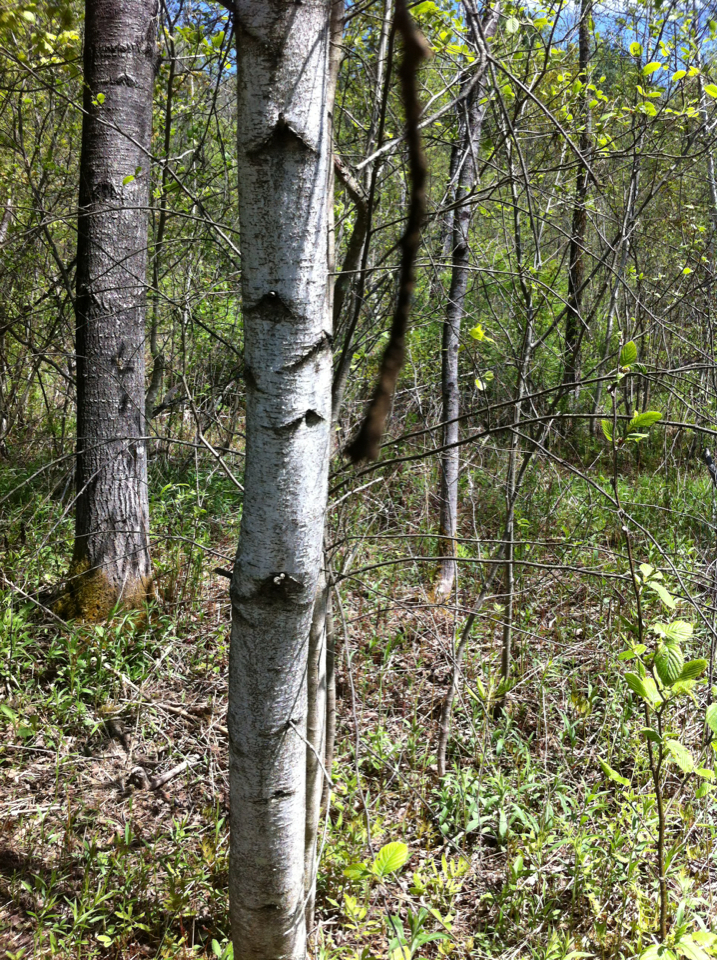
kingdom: Plantae
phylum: Tracheophyta
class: Magnoliopsida
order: Fagales
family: Betulaceae
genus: Betula
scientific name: Betula populifolia
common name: Fire birch
